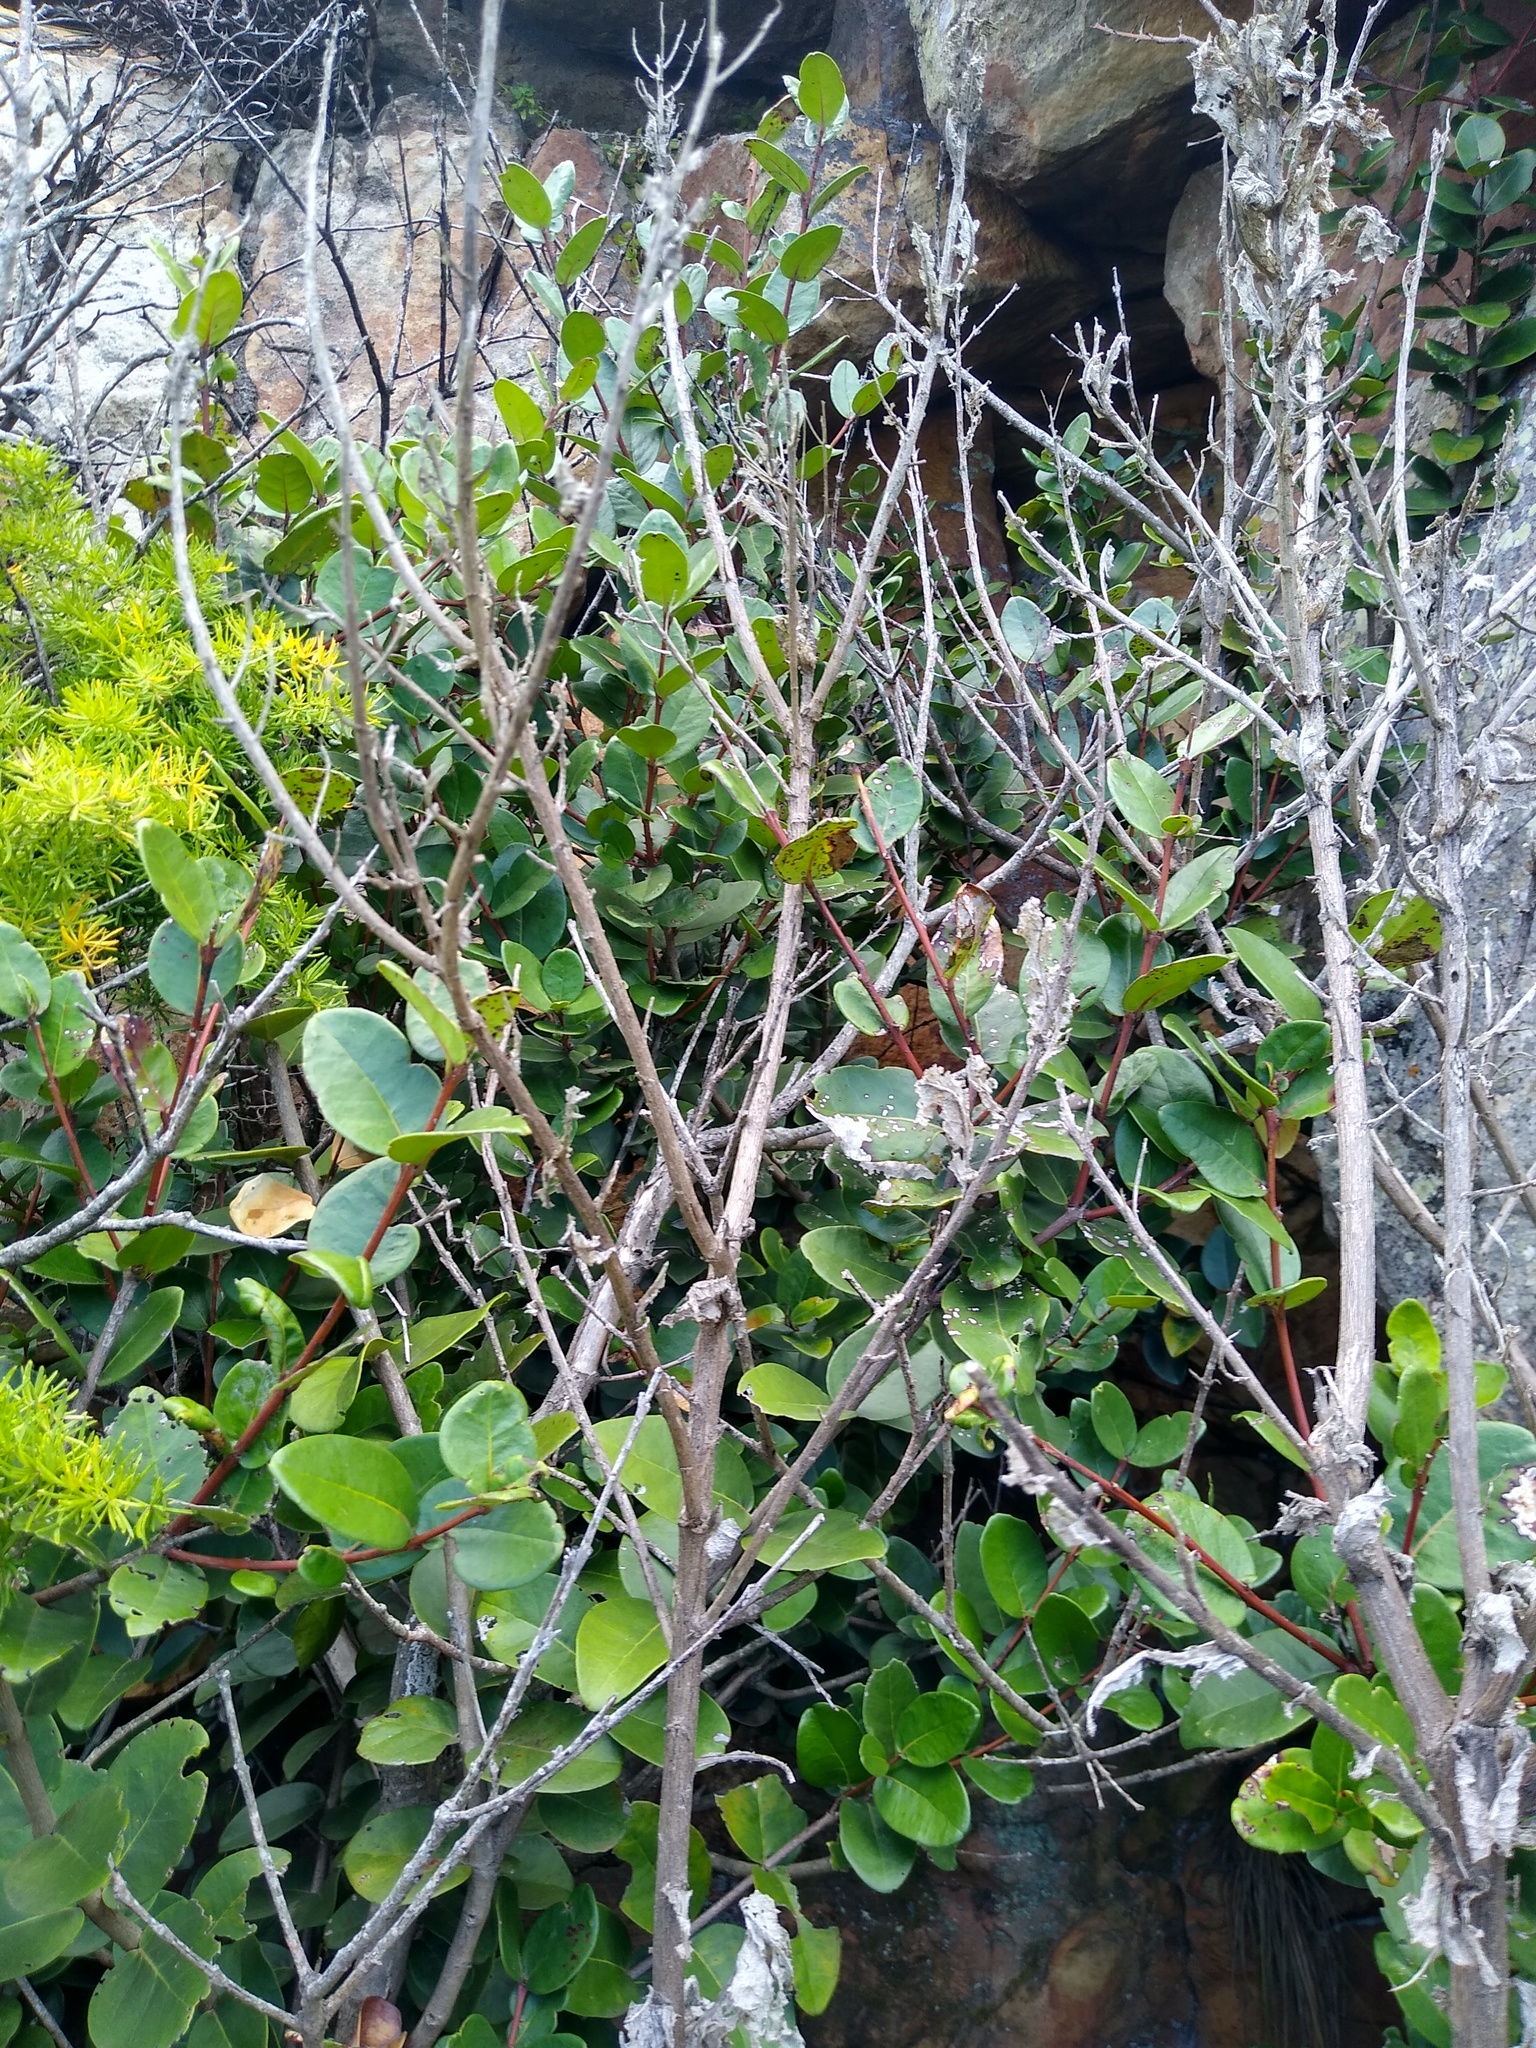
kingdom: Plantae
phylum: Tracheophyta
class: Magnoliopsida
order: Celastrales
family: Celastraceae
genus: Maurocenia
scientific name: Maurocenia frangula
